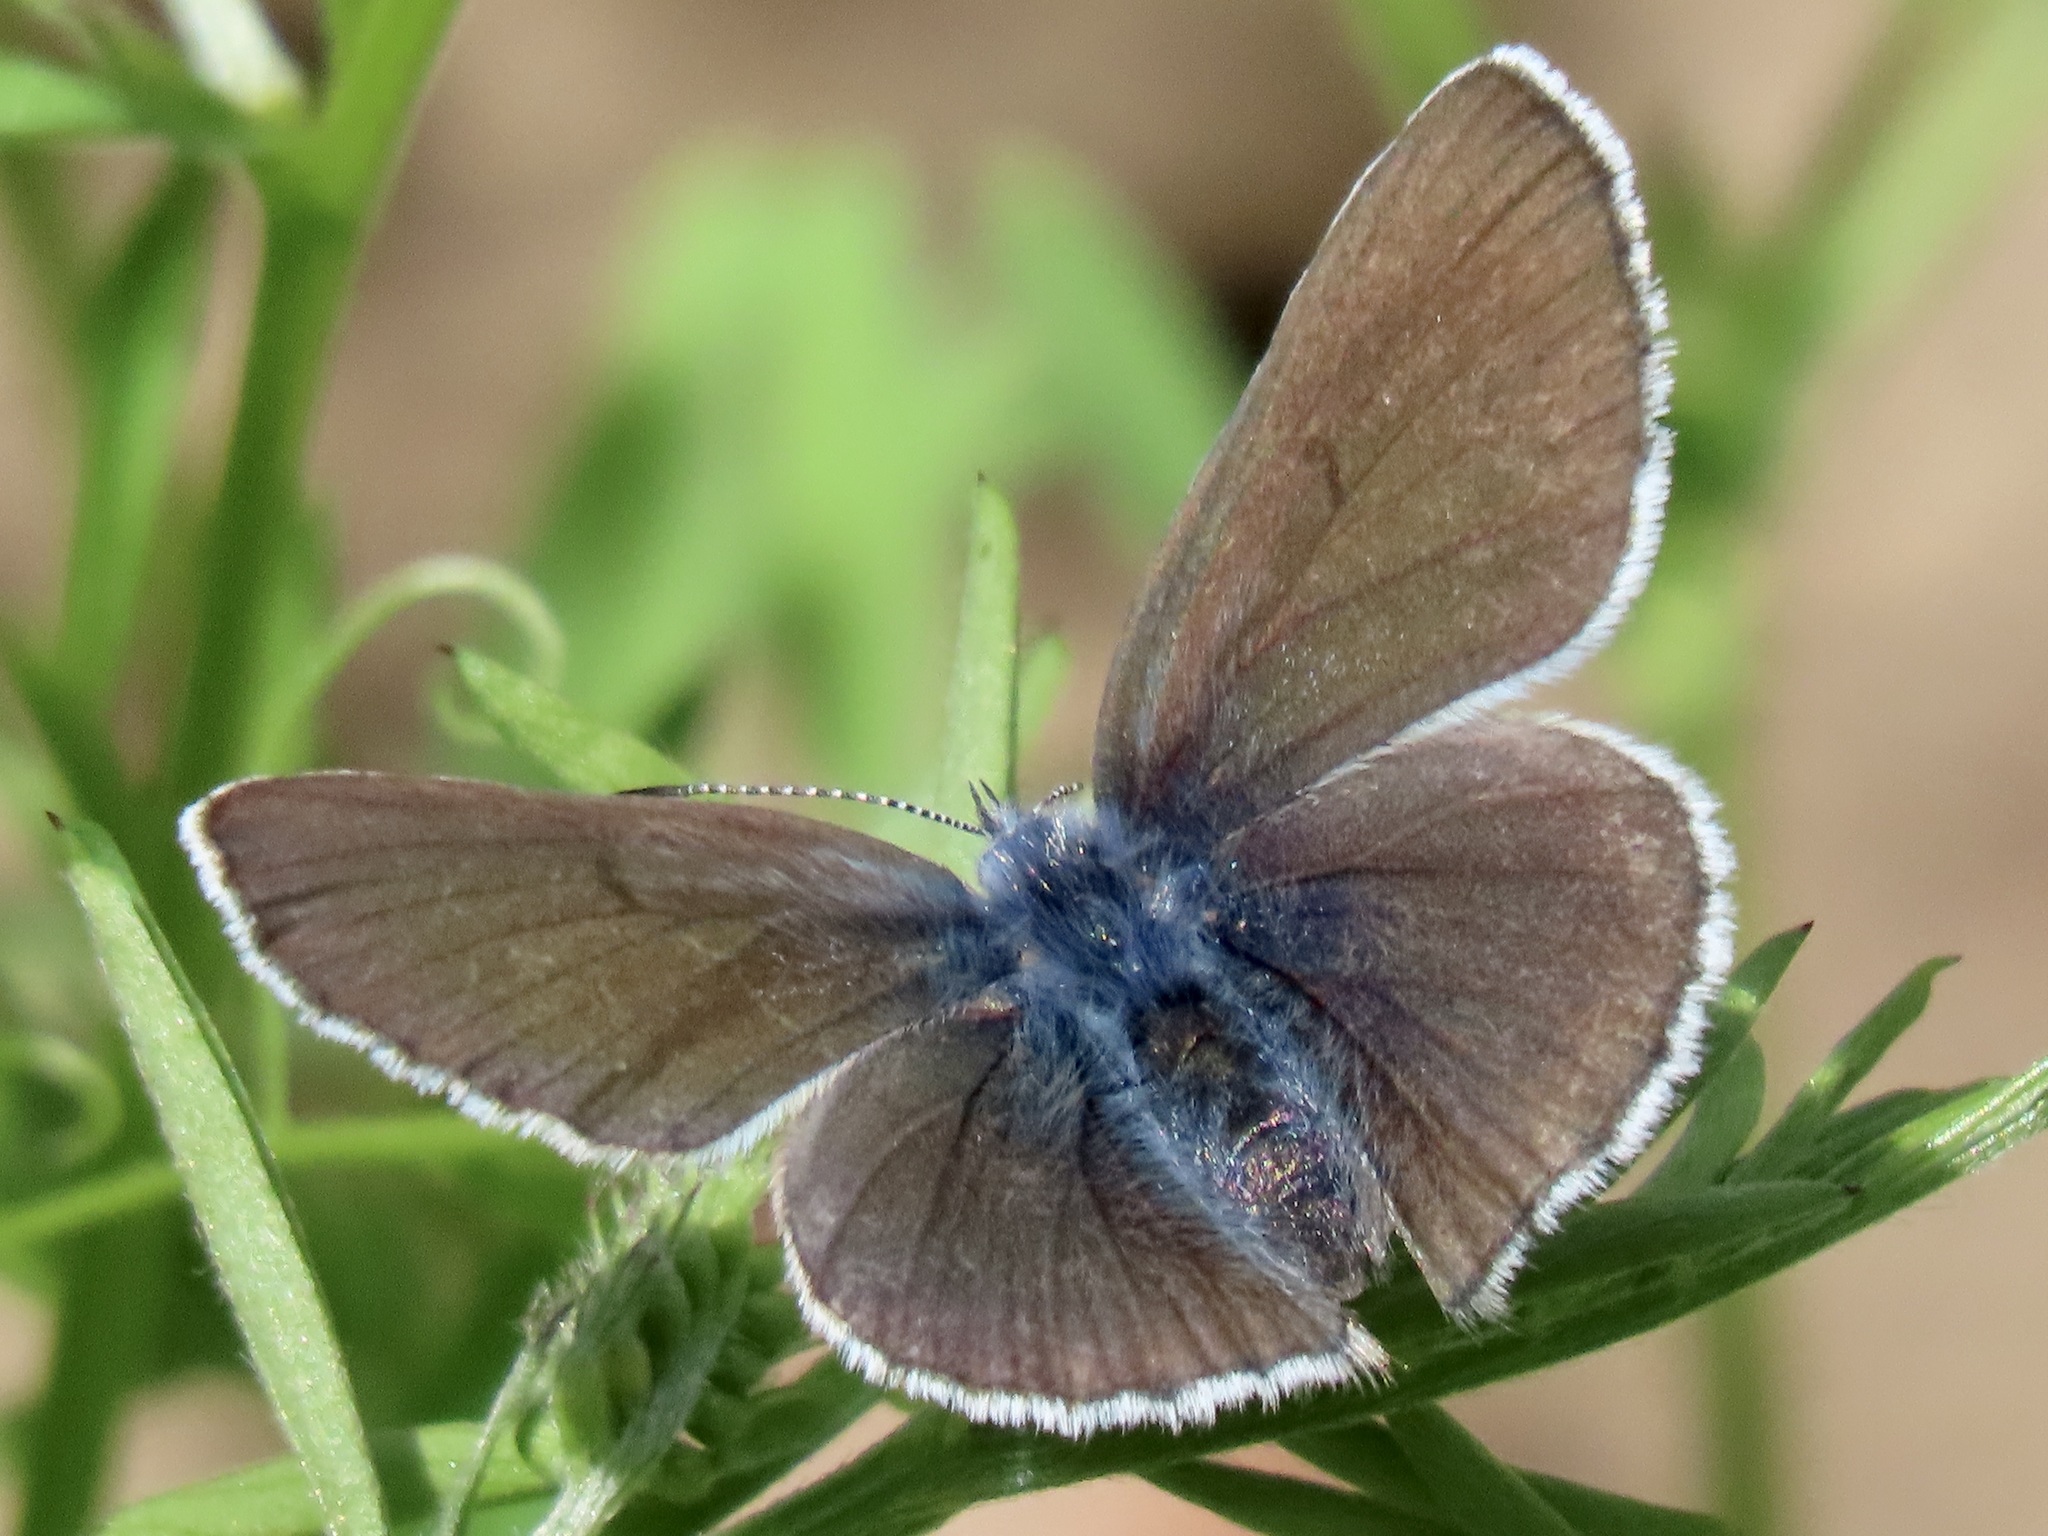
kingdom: Animalia
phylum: Arthropoda
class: Insecta
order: Lepidoptera
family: Lycaenidae
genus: Glaucopsyche
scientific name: Glaucopsyche lygdamus
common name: Silvery blue
